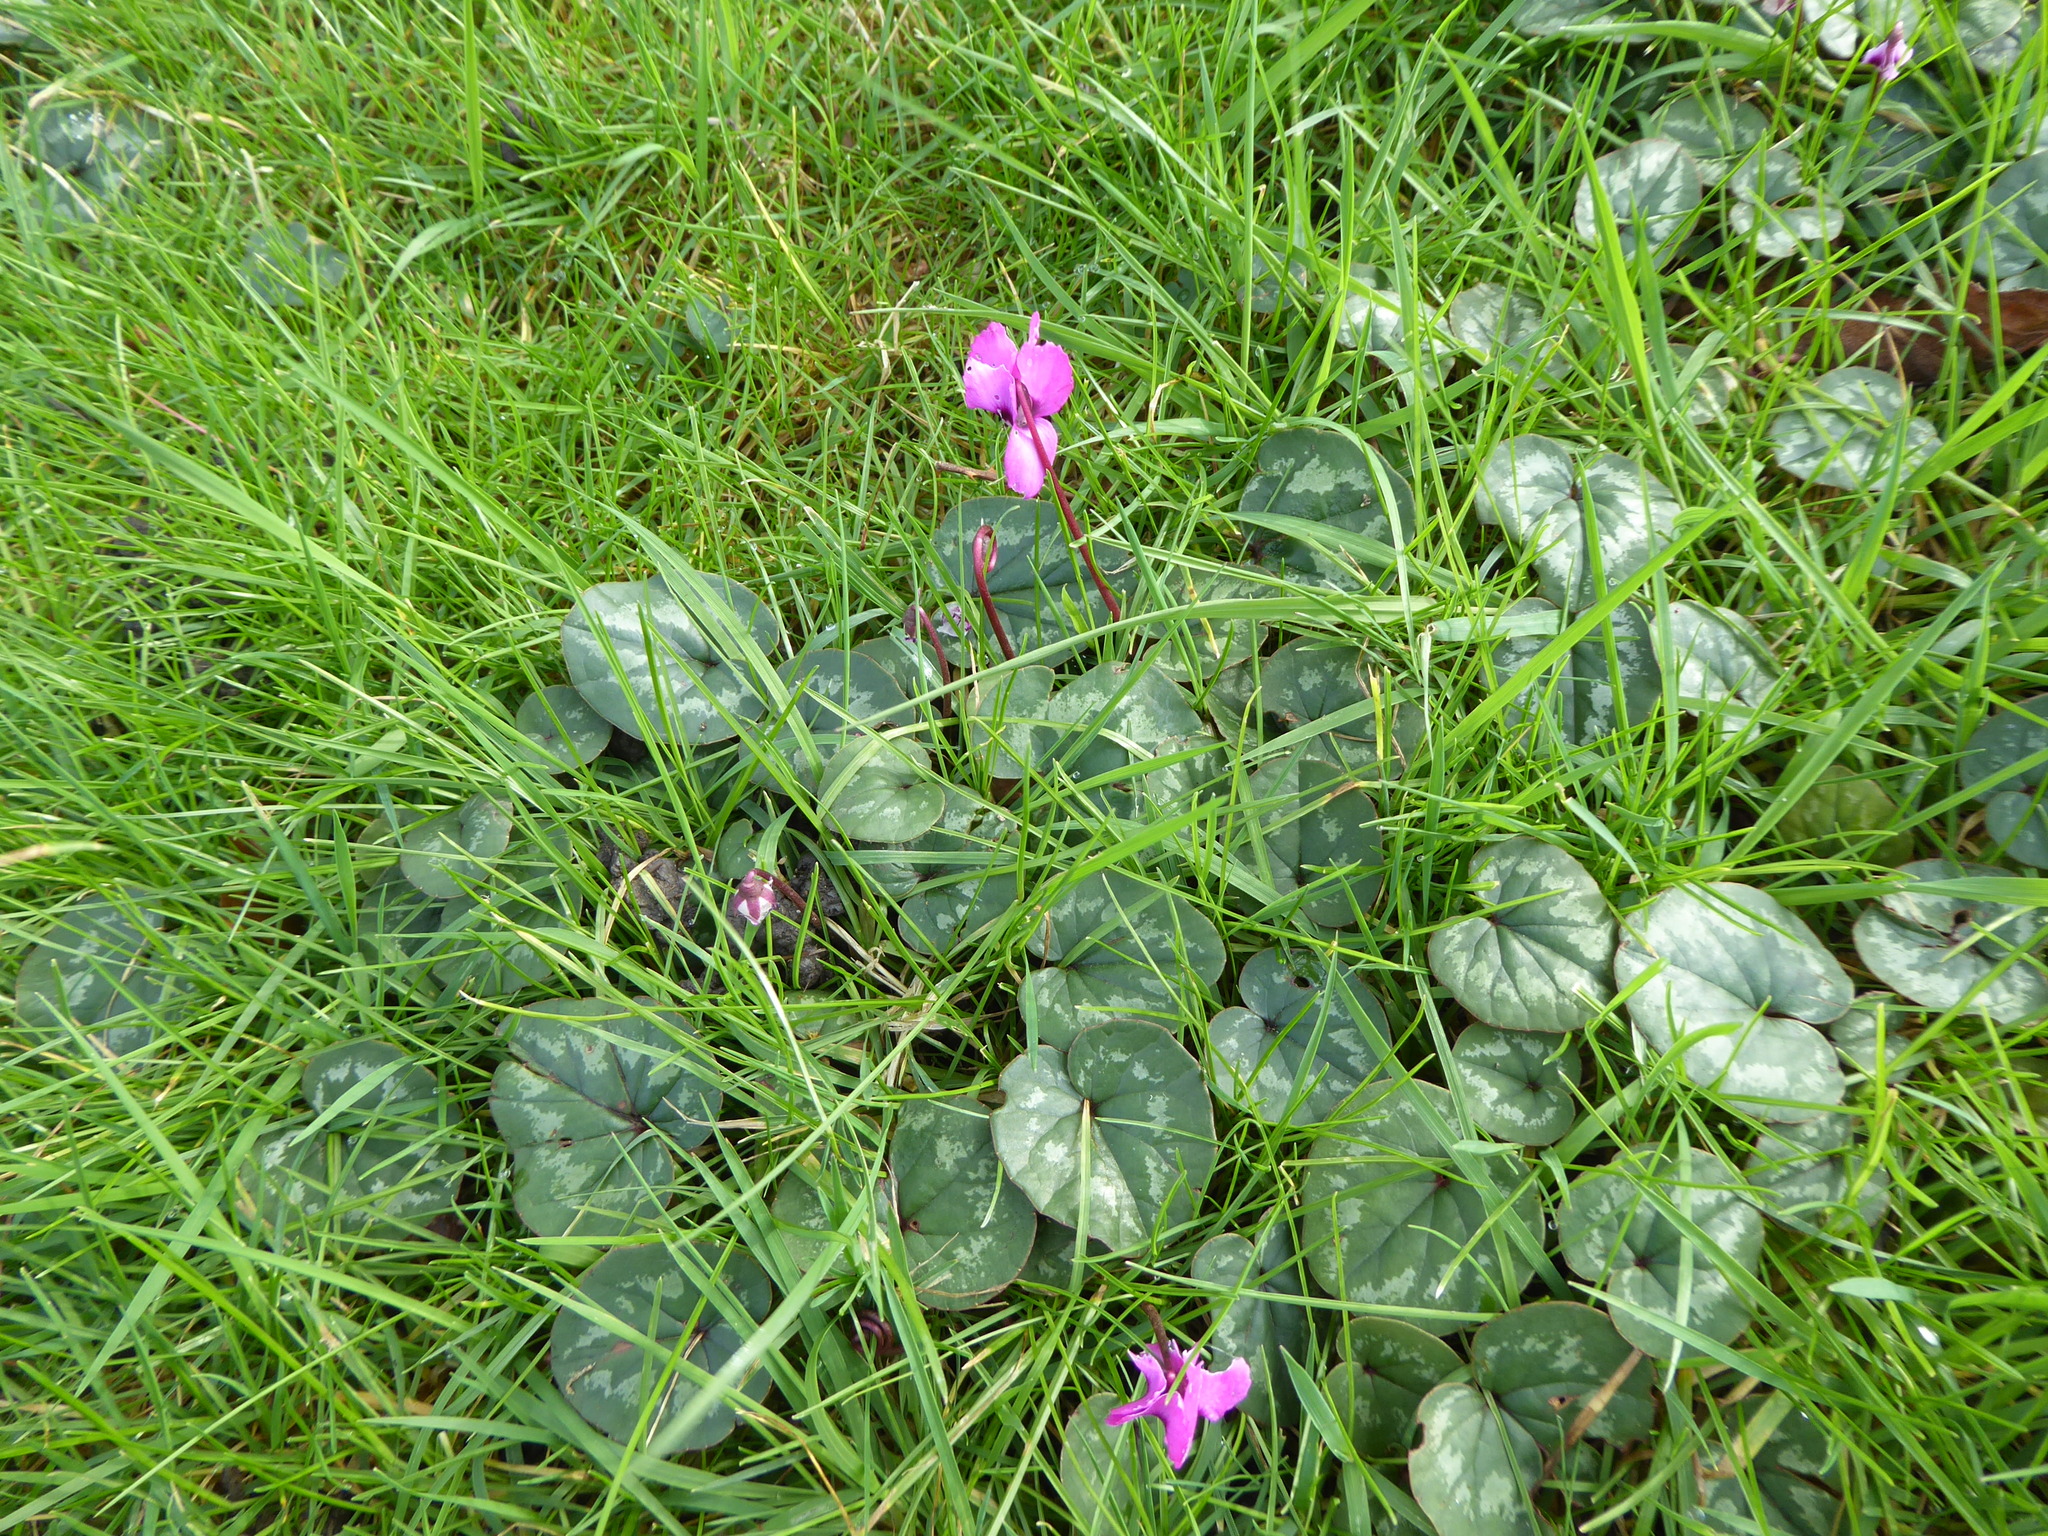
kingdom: Plantae
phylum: Tracheophyta
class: Magnoliopsida
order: Ericales
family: Primulaceae
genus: Cyclamen
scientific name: Cyclamen coum
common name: Eastern sowbread
